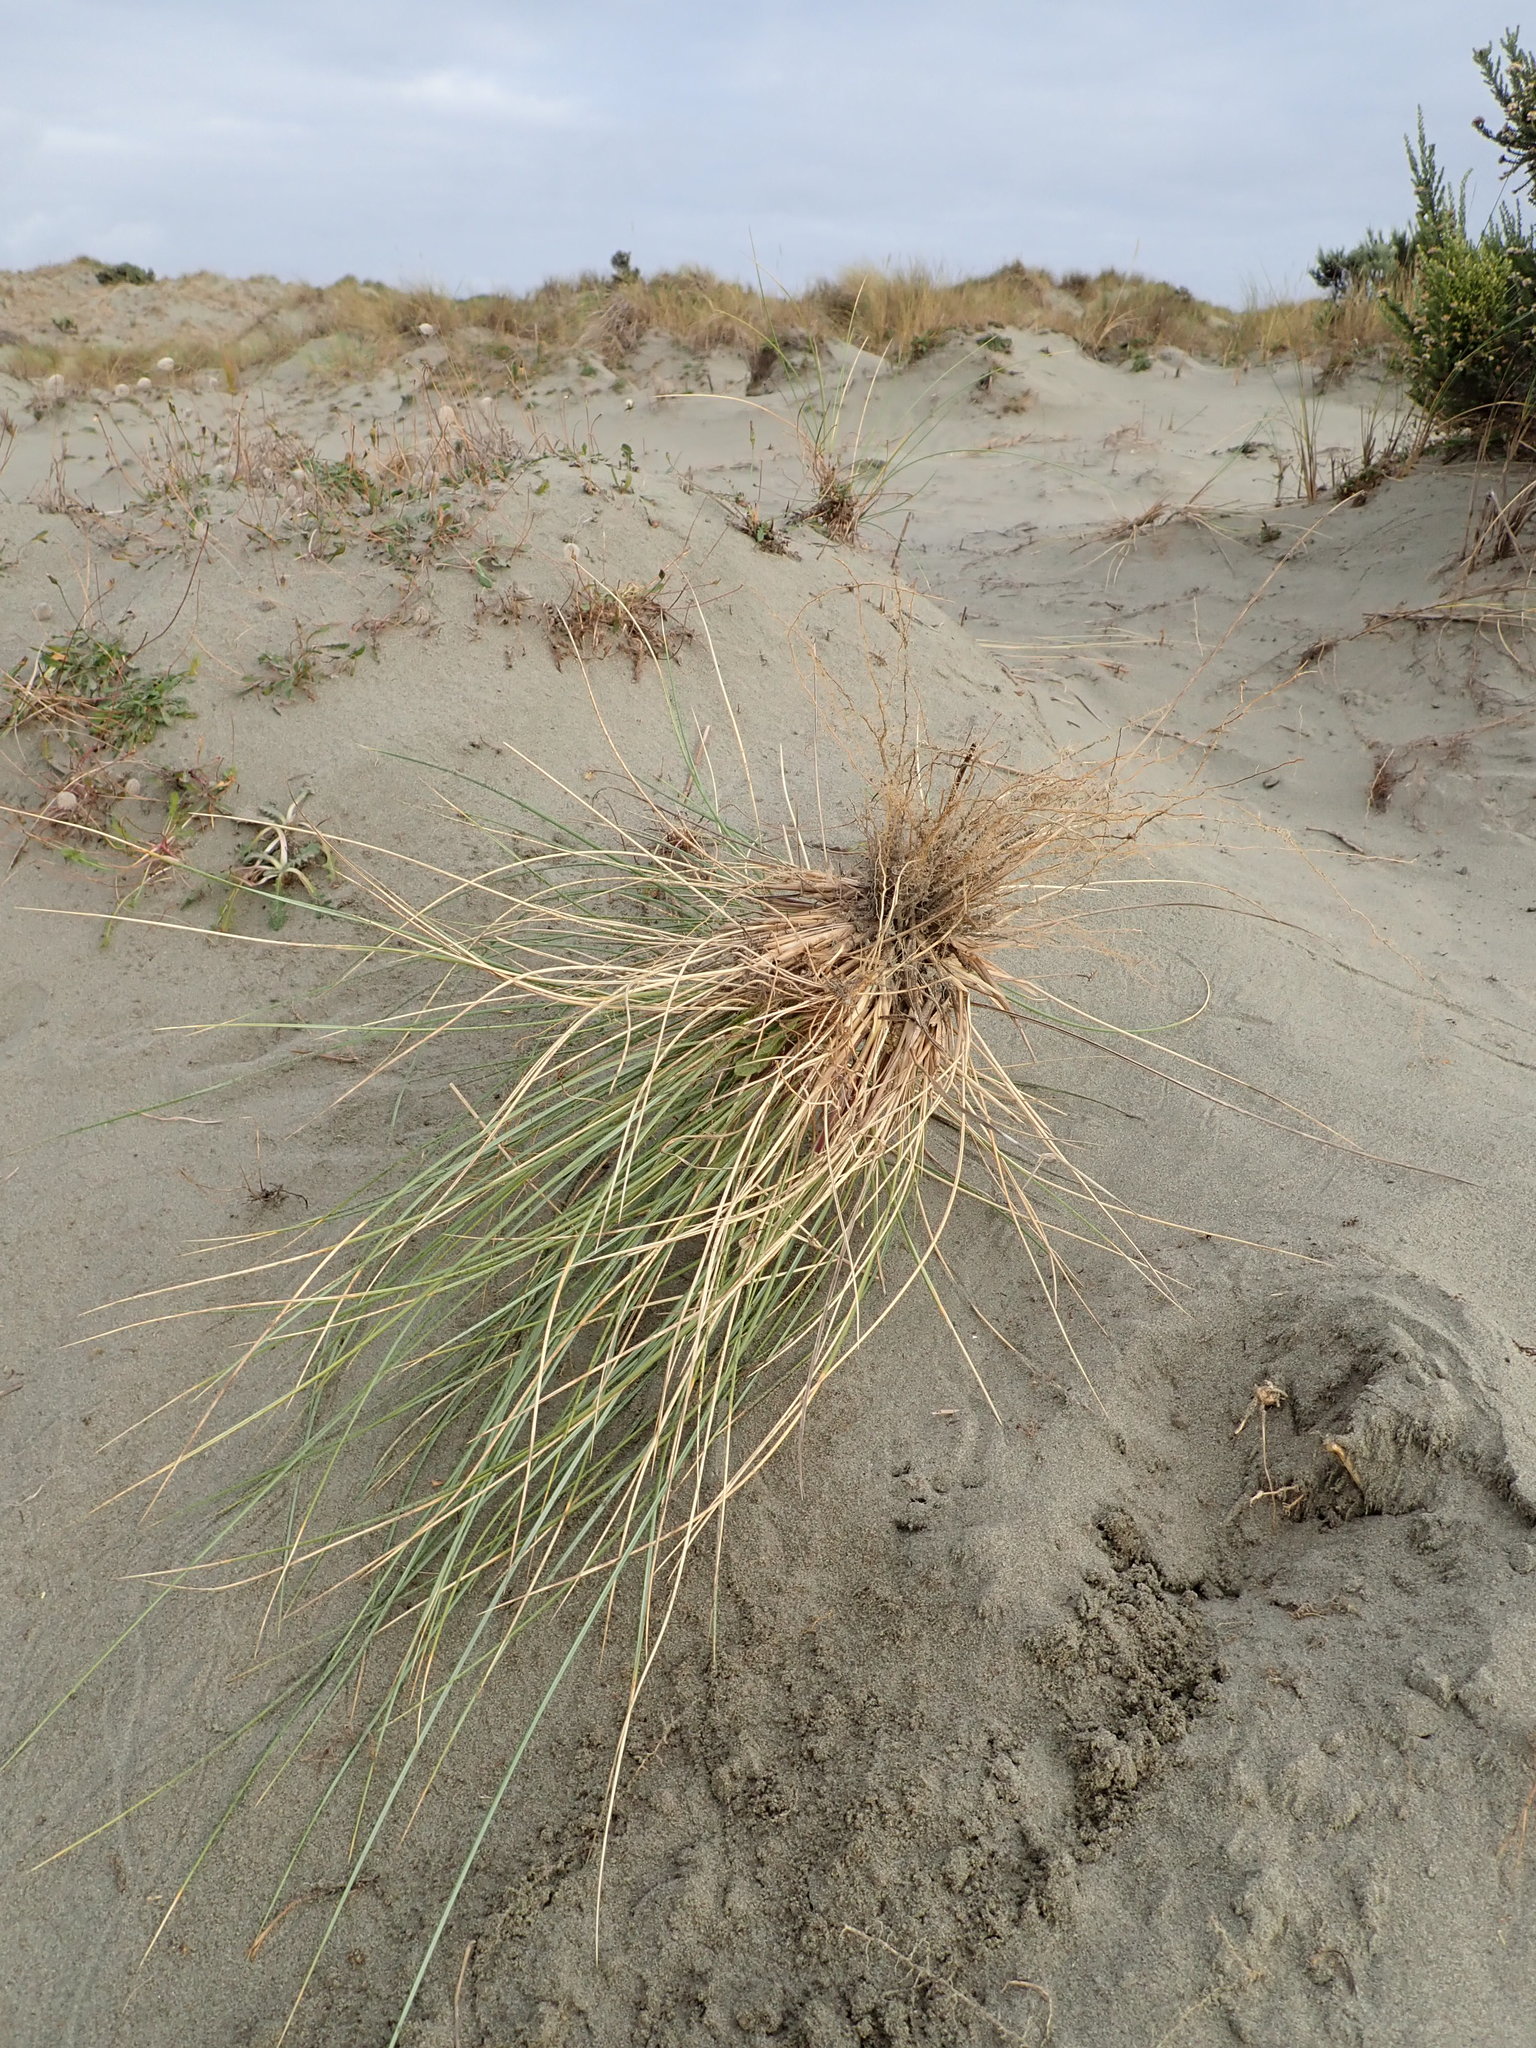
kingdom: Plantae
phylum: Tracheophyta
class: Liliopsida
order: Poales
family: Poaceae
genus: Calamagrostis
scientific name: Calamagrostis arenaria
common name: European beachgrass
